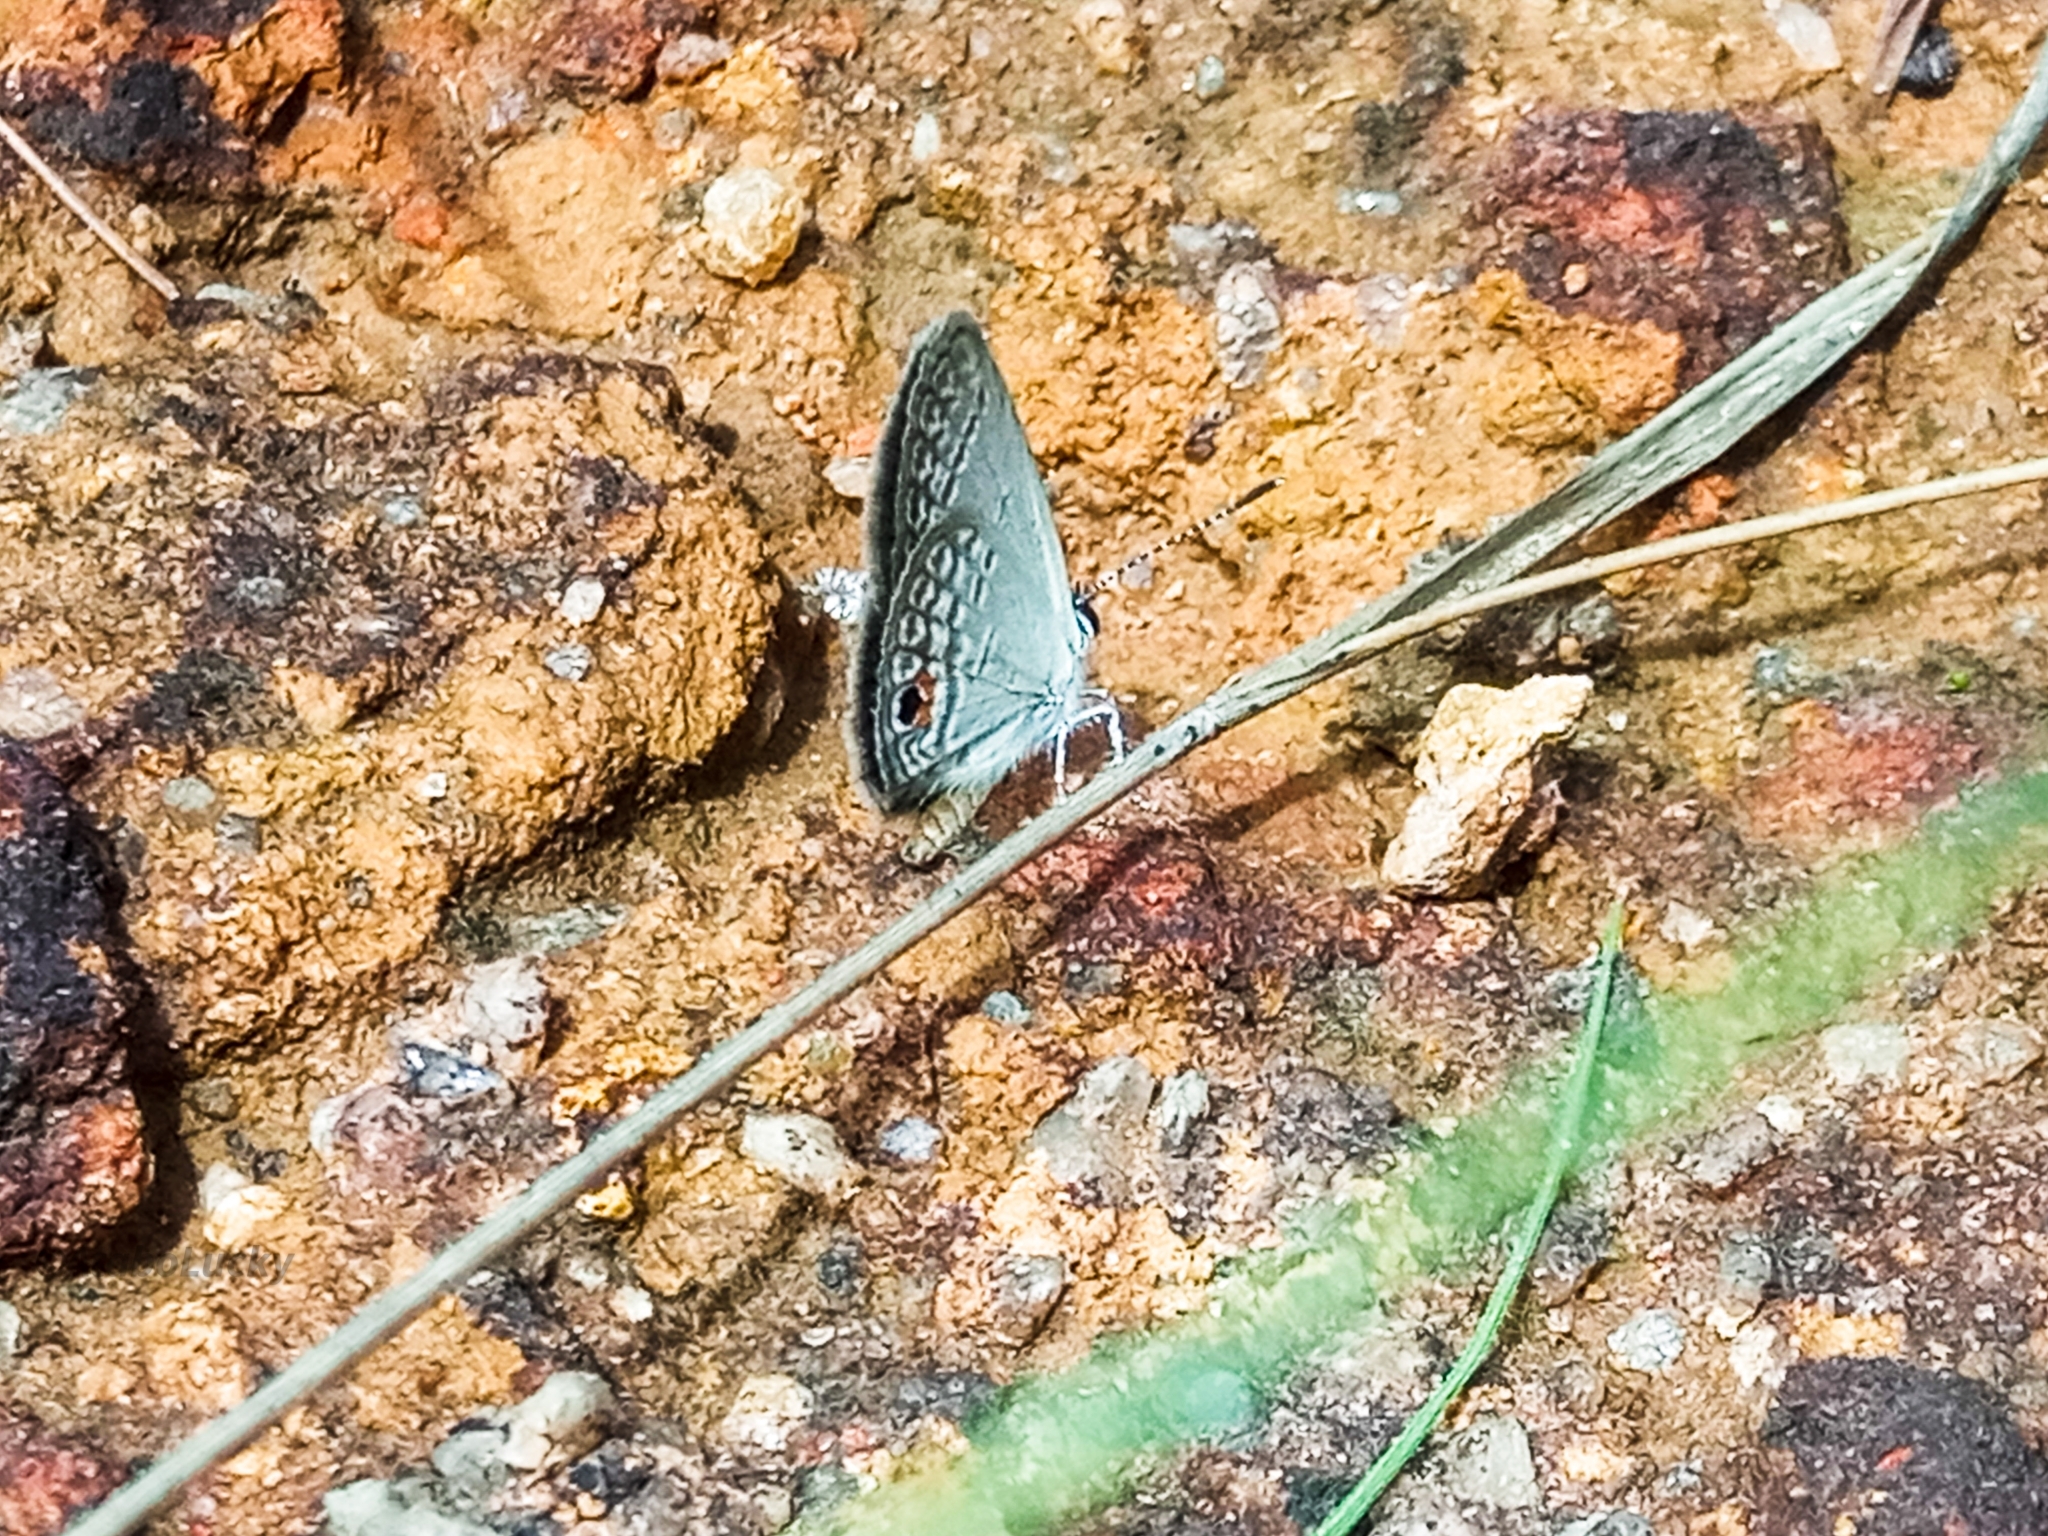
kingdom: Animalia
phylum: Arthropoda
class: Insecta
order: Lepidoptera
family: Lycaenidae
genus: Eicochrysops
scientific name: Eicochrysops dudgeoni
